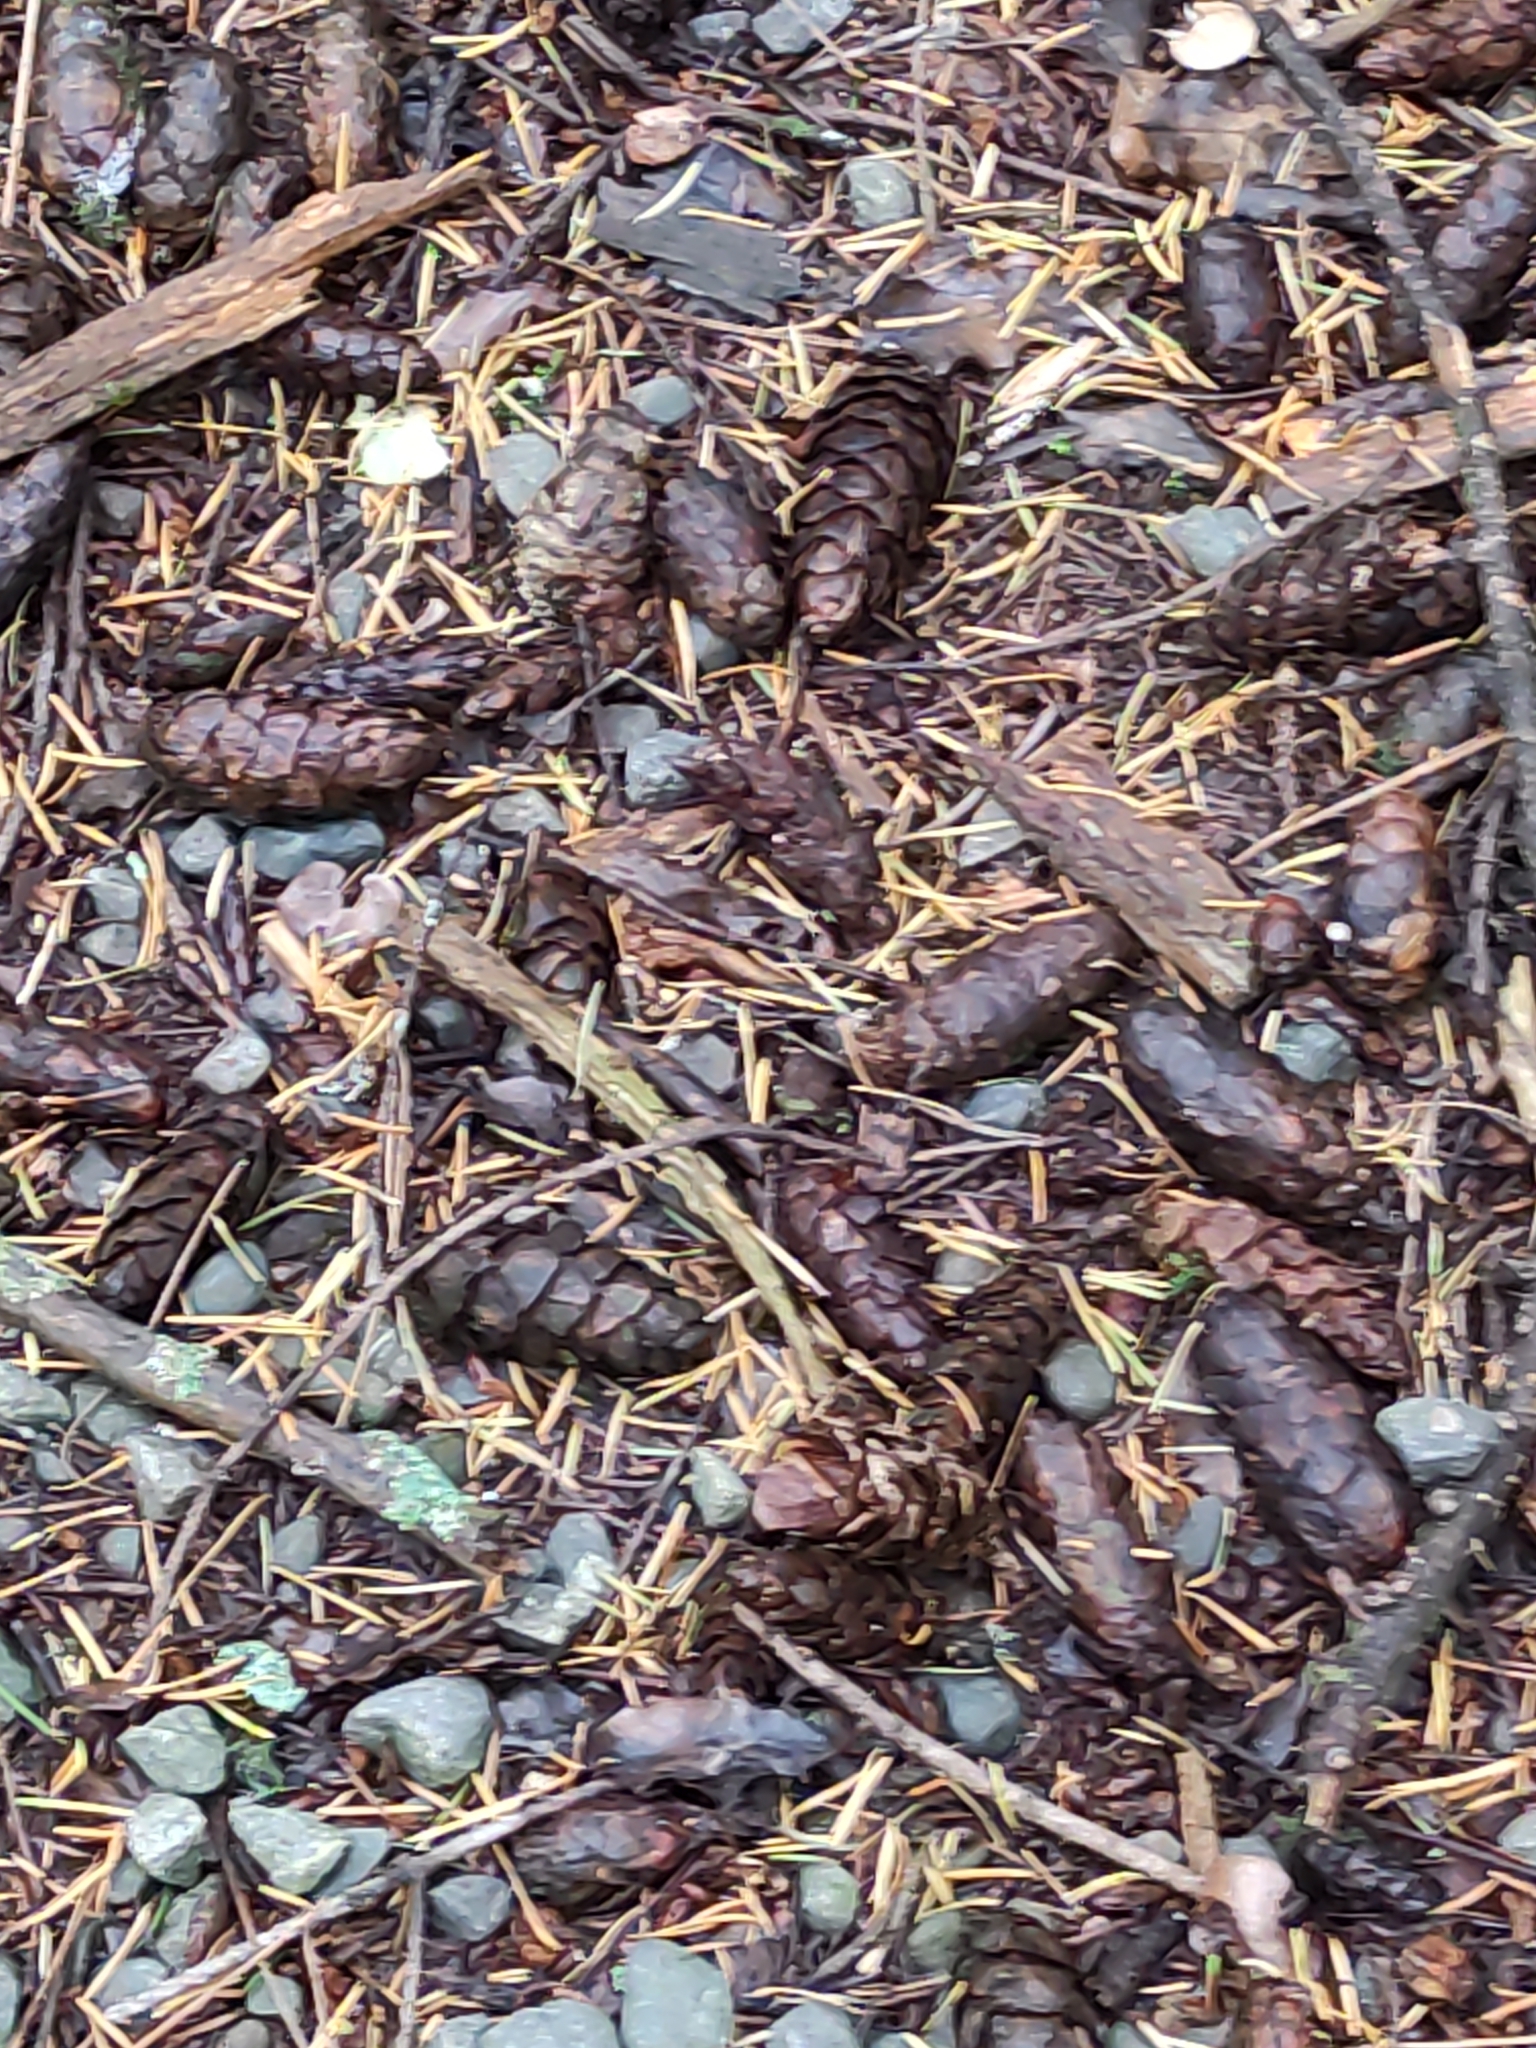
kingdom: Plantae
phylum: Tracheophyta
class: Pinopsida
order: Pinales
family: Pinaceae
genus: Pseudotsuga
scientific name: Pseudotsuga menziesii
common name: Douglas fir
